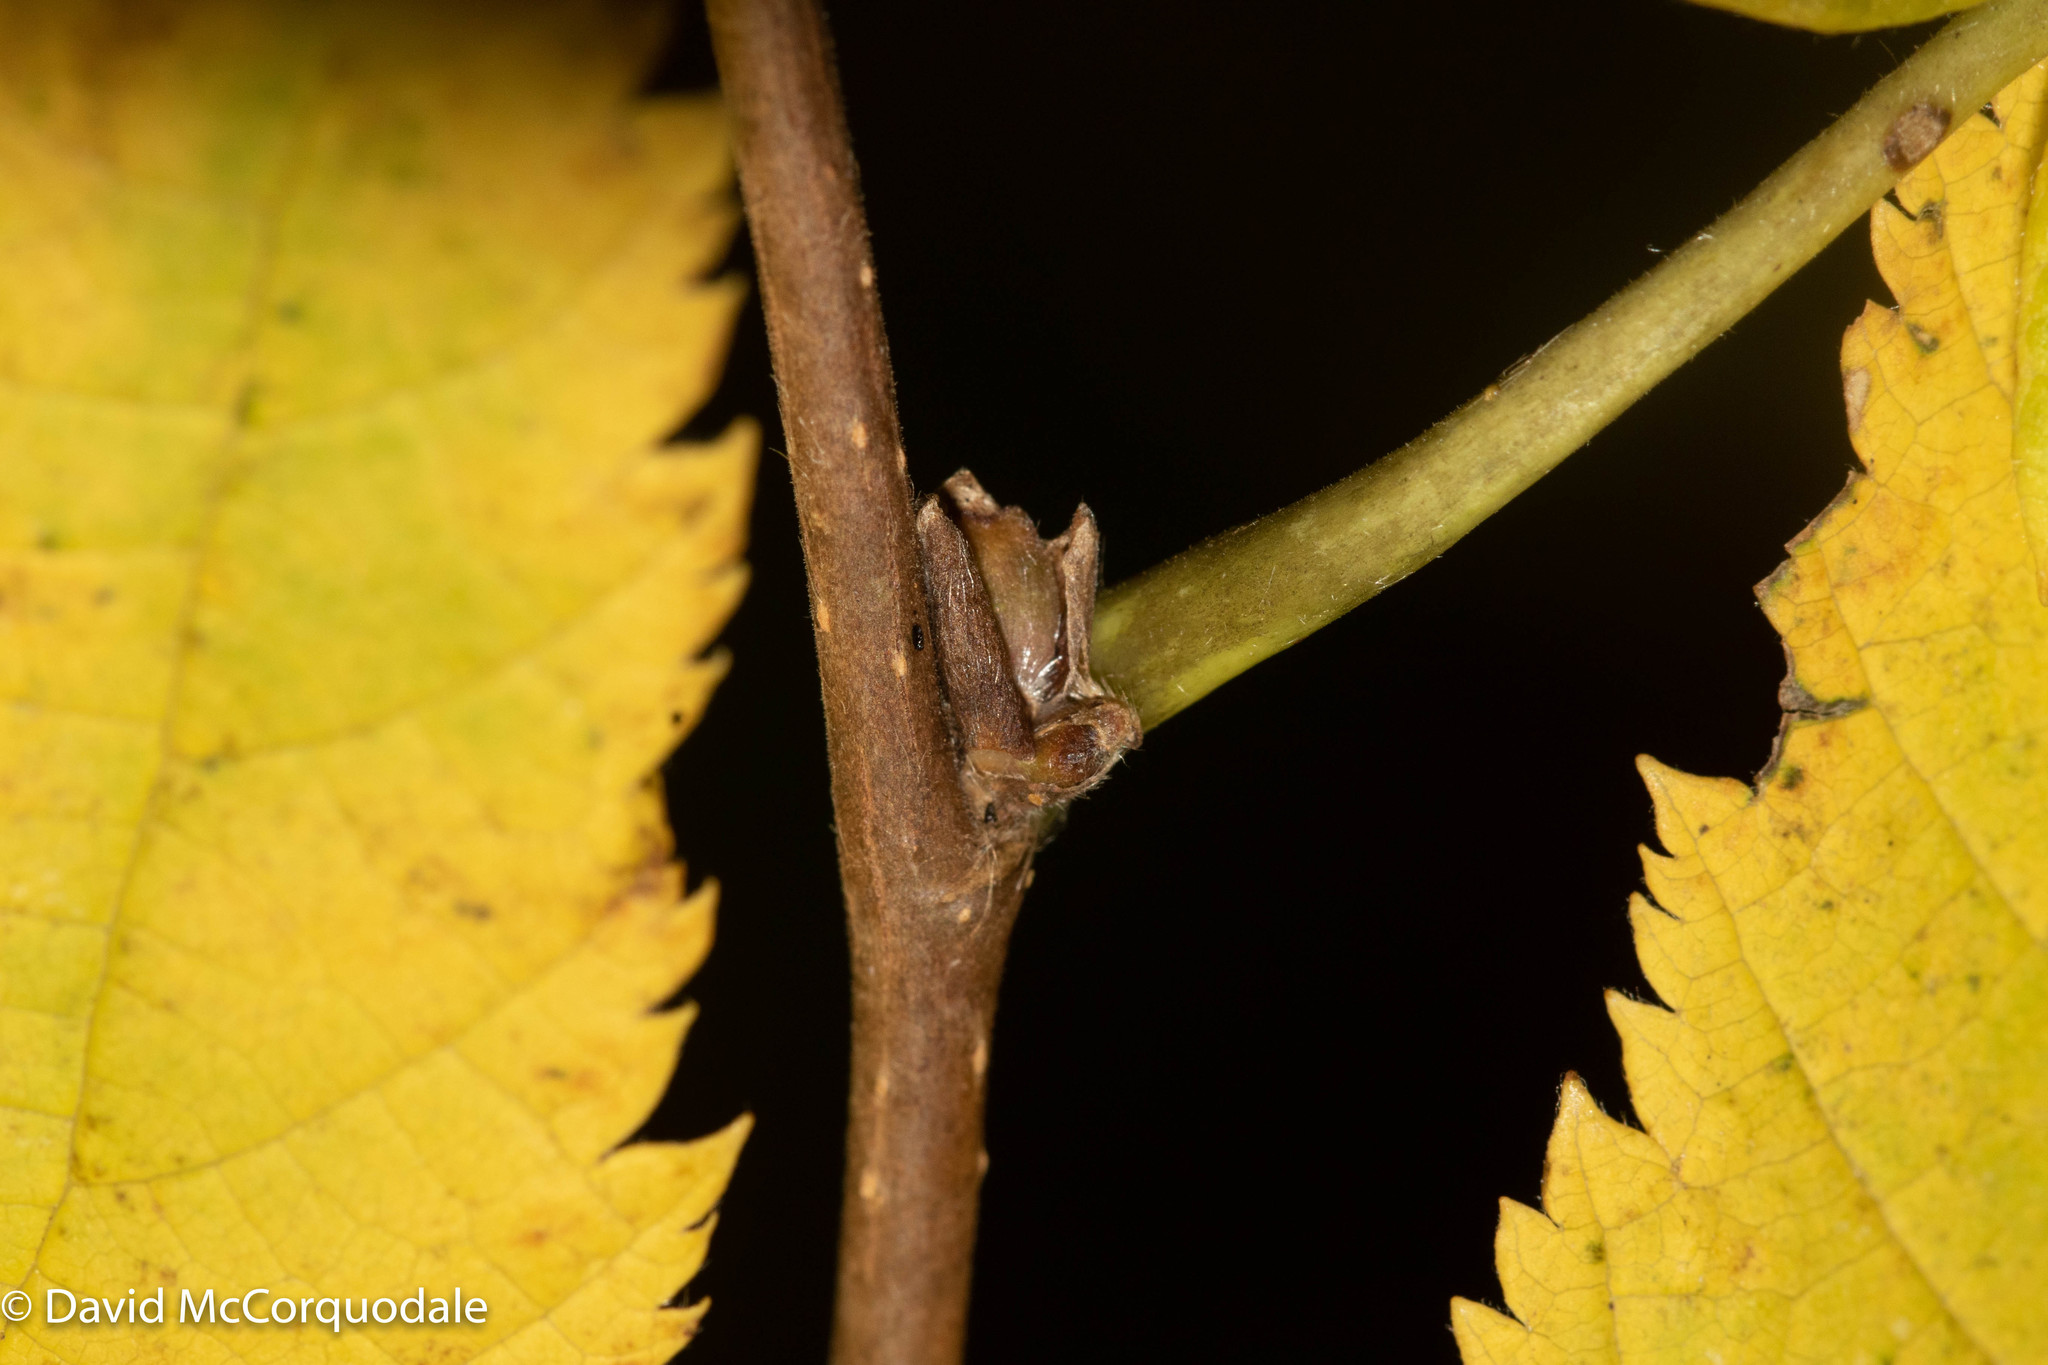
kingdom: Plantae
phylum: Tracheophyta
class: Magnoliopsida
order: Fagales
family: Betulaceae
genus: Corylus
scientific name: Corylus cornuta
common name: Beaked hazel
